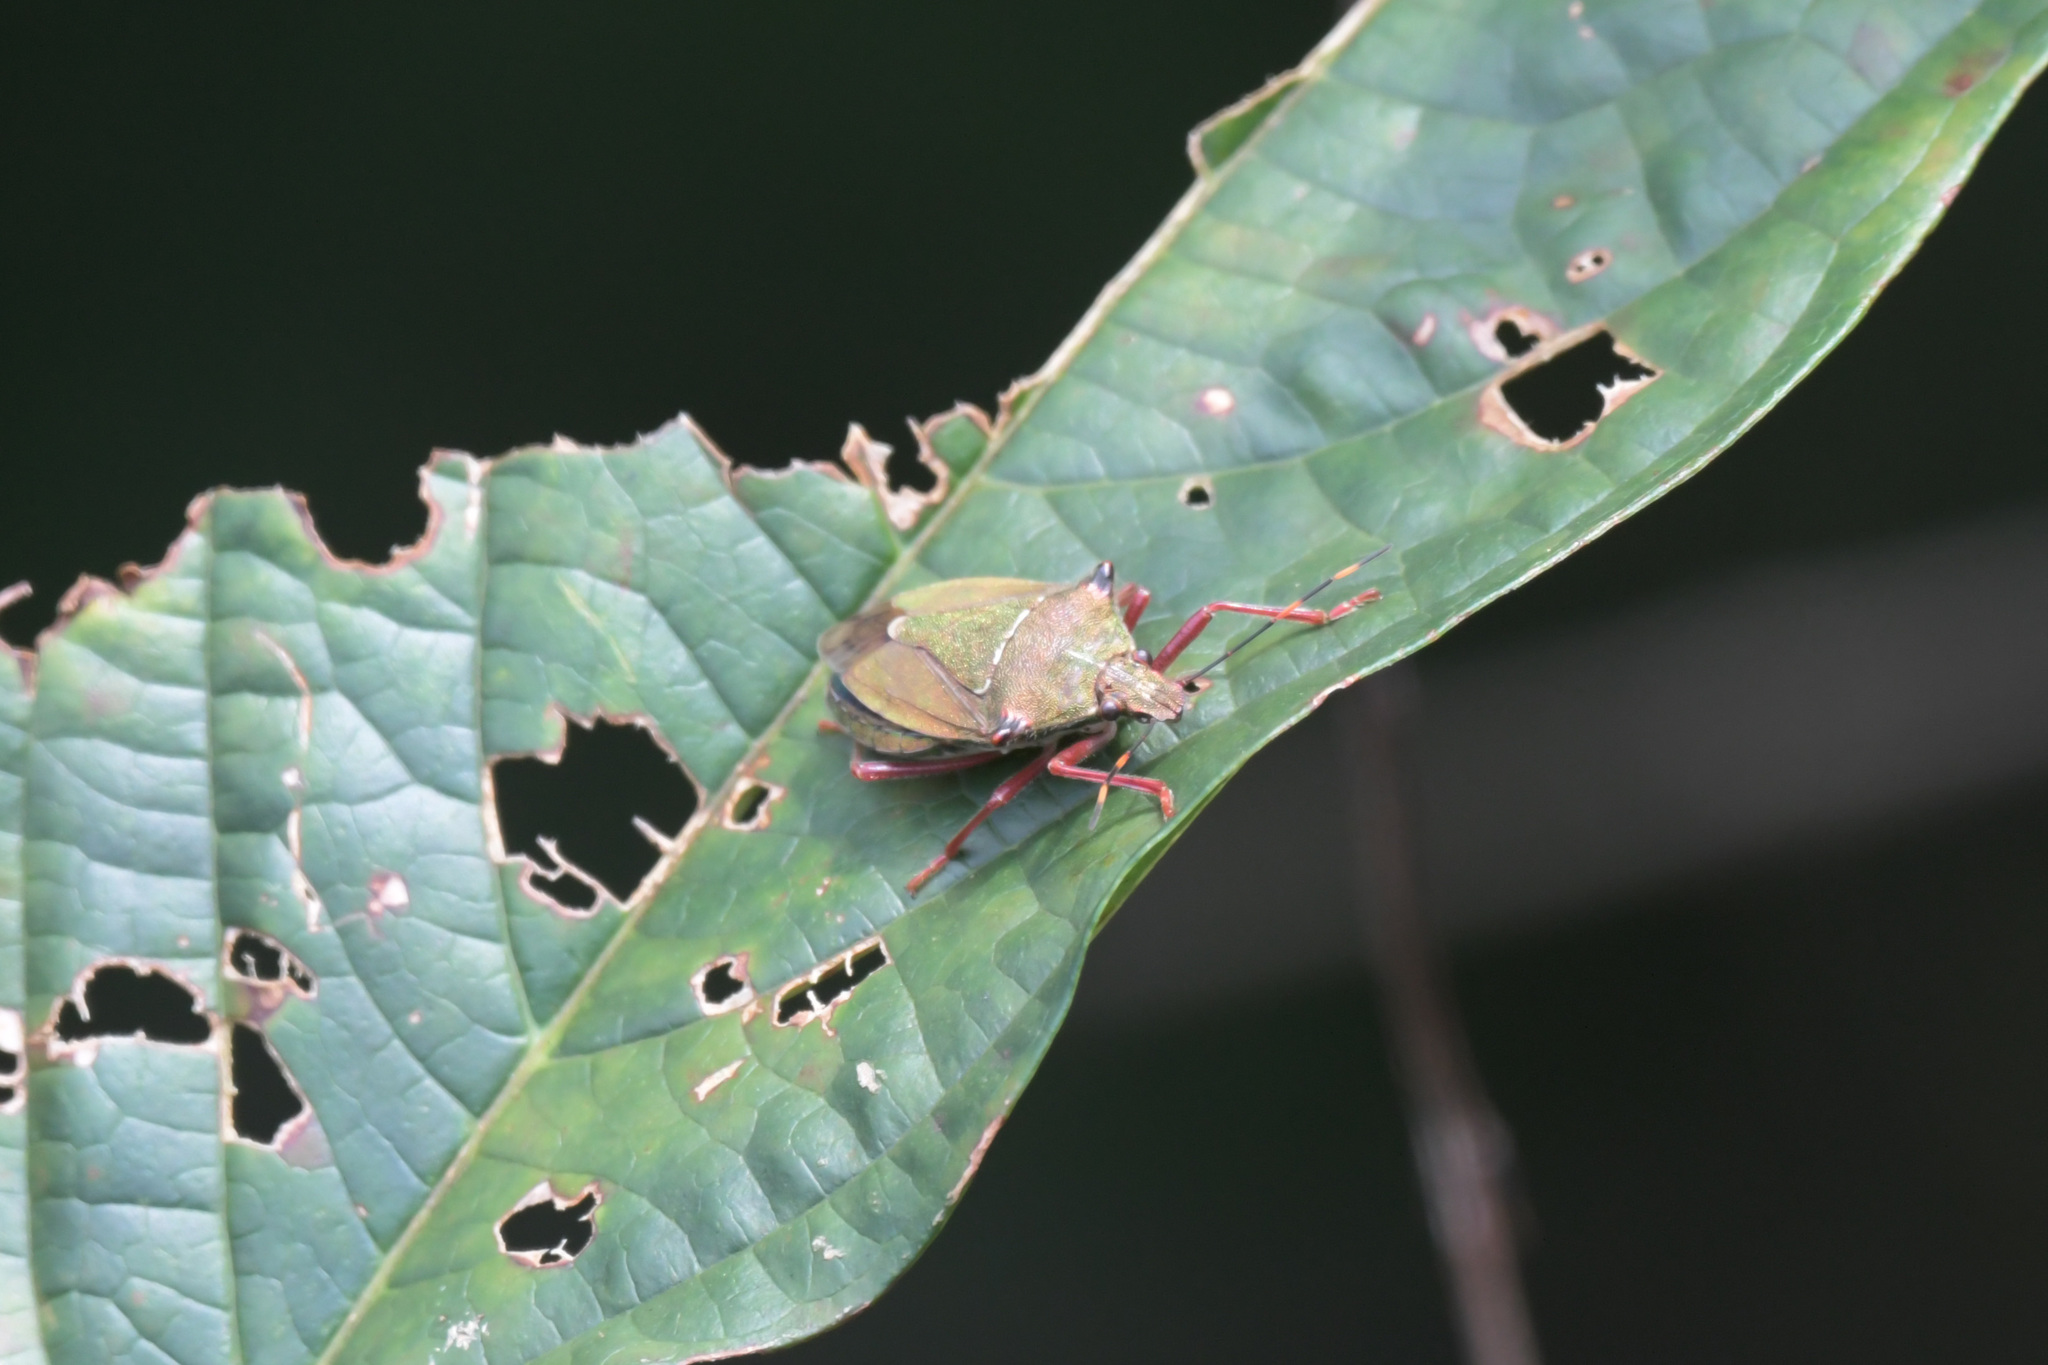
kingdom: Animalia
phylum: Arthropoda
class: Insecta
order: Hemiptera
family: Pentatomidae
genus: Dalpada
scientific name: Dalpada smaragdina
